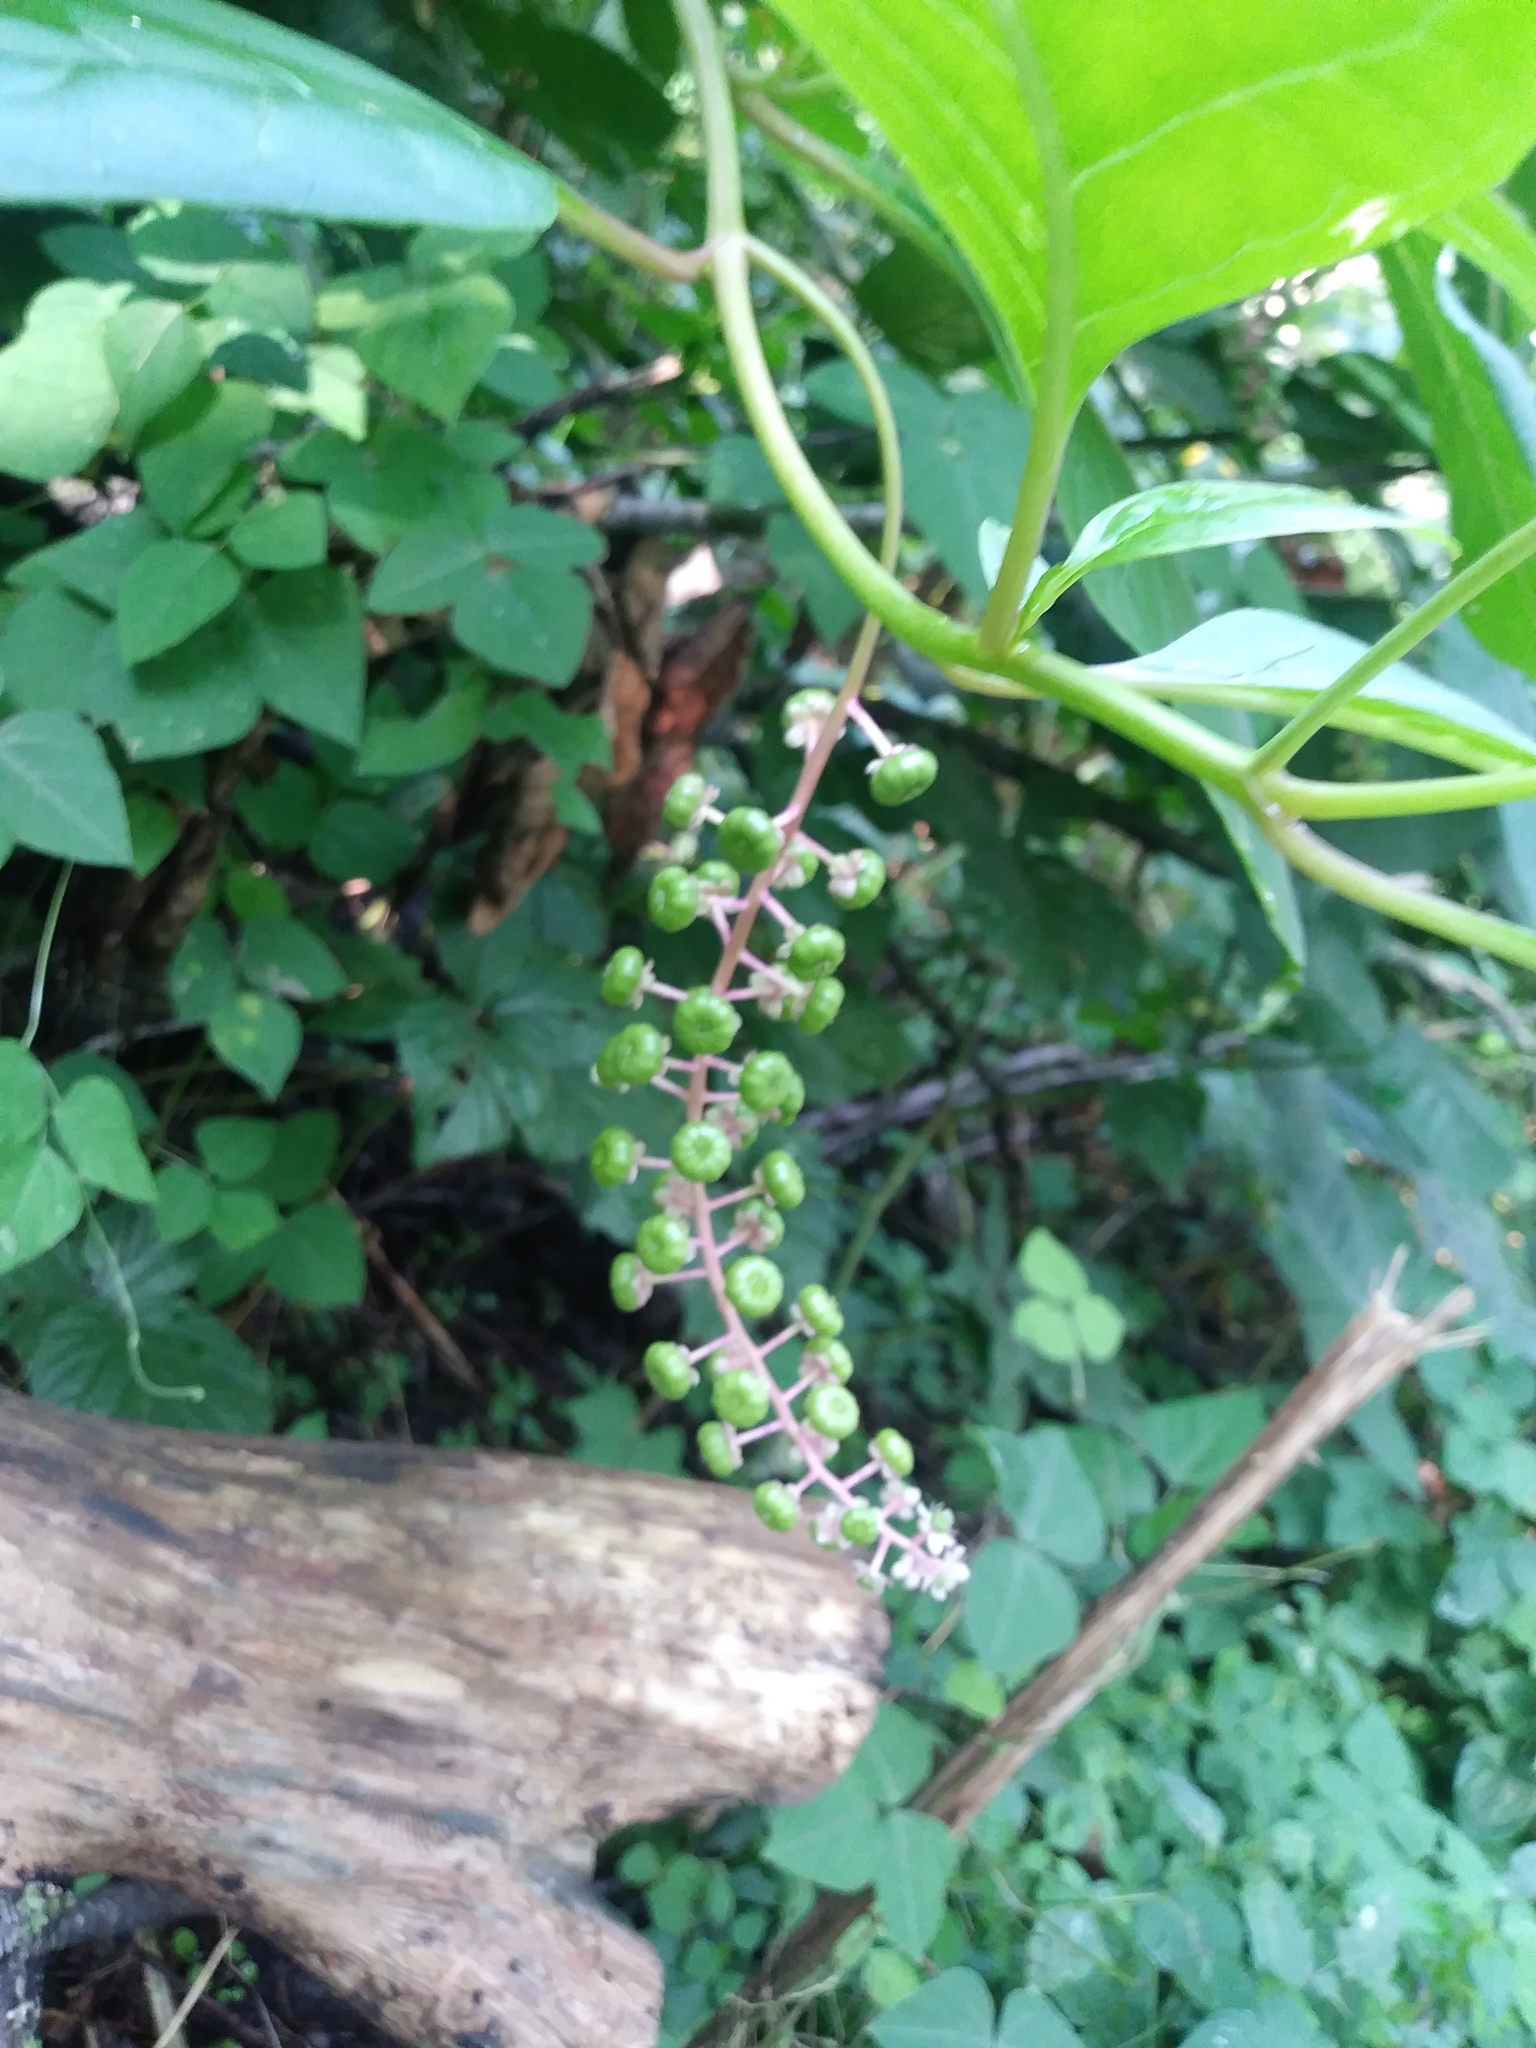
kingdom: Plantae
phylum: Tracheophyta
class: Magnoliopsida
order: Caryophyllales
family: Phytolaccaceae
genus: Phytolacca
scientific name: Phytolacca americana
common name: American pokeweed
